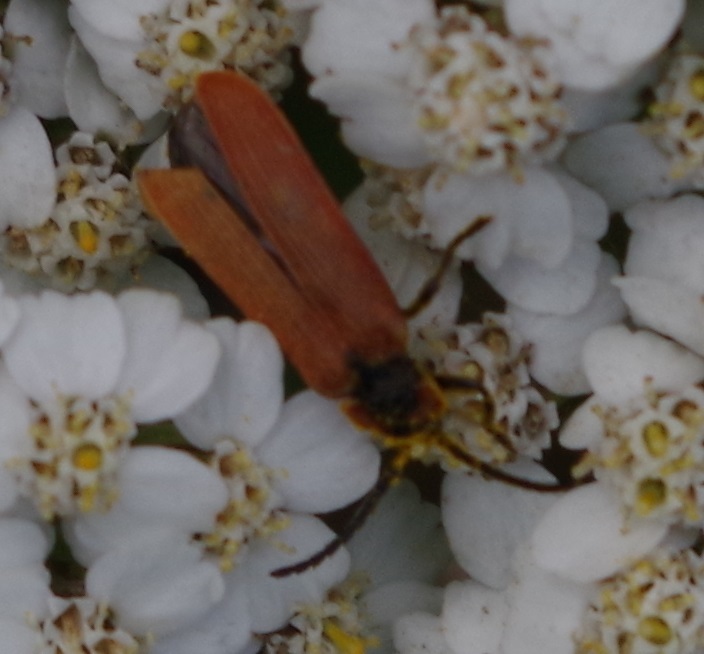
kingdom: Animalia
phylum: Arthropoda
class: Insecta
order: Coleoptera
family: Lycidae
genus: Lygistopterus
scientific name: Lygistopterus sanguineus
